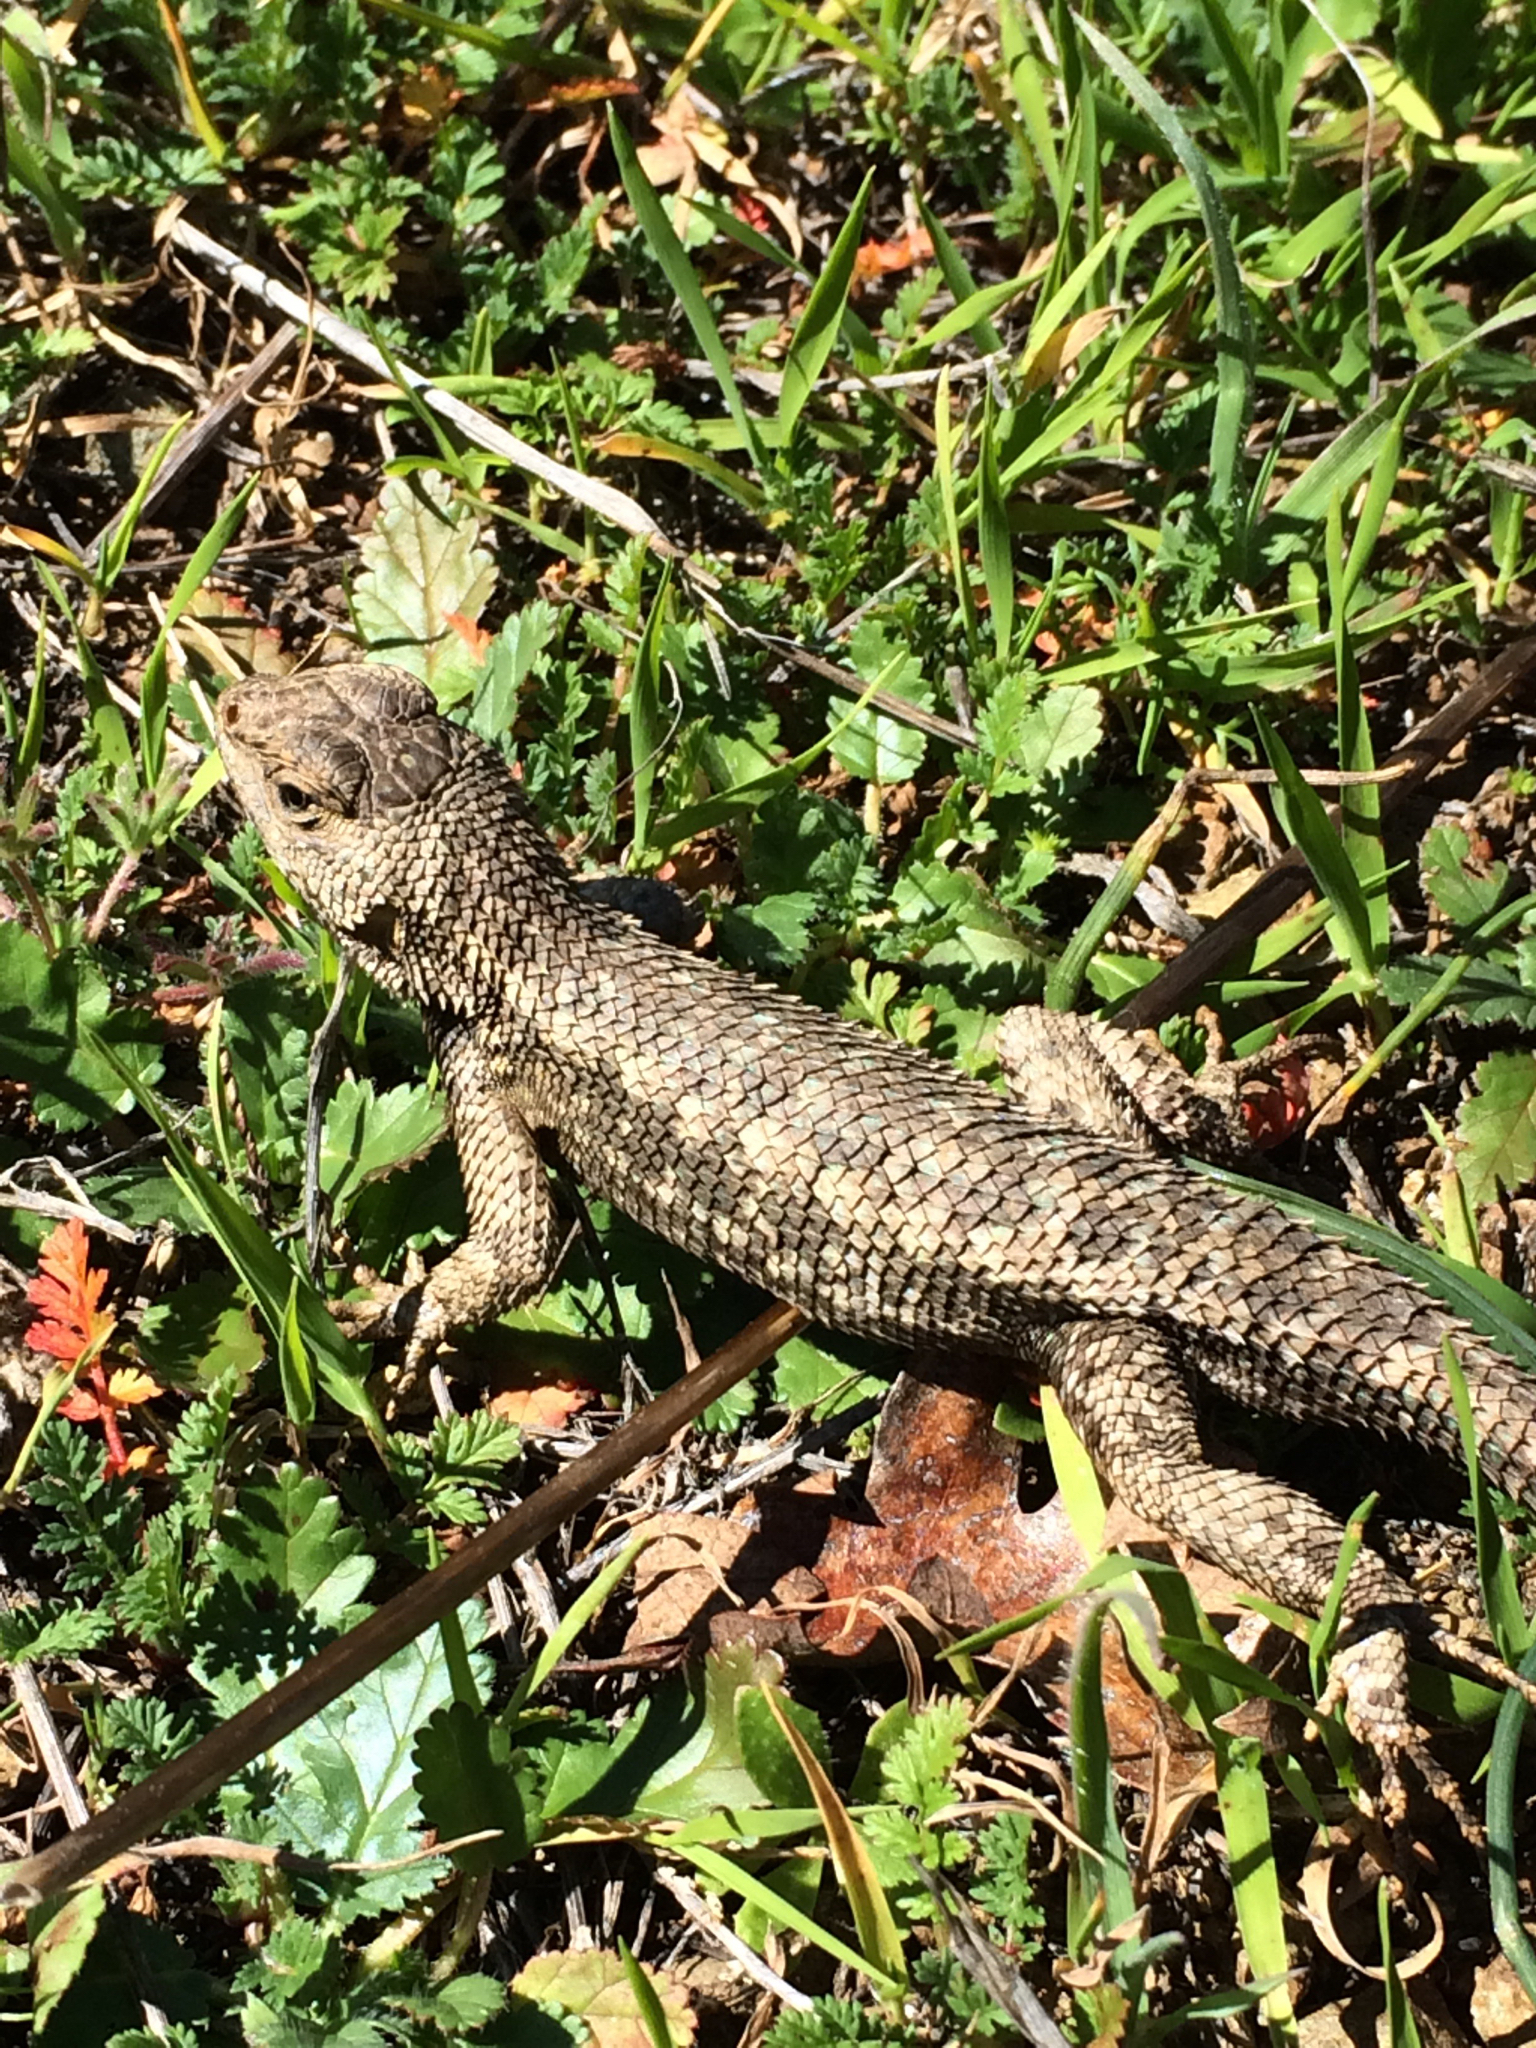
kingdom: Animalia
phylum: Chordata
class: Squamata
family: Phrynosomatidae
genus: Sceloporus
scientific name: Sceloporus occidentalis
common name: Western fence lizard
